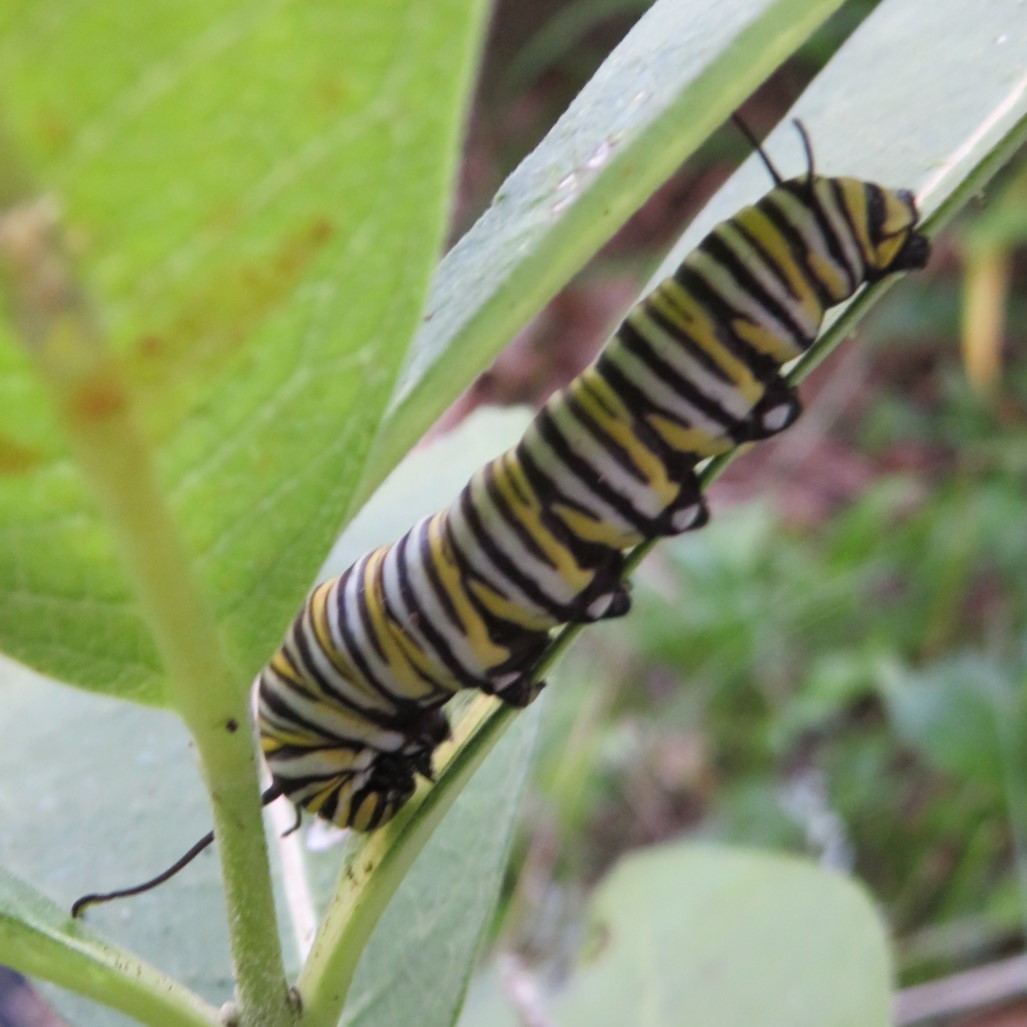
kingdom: Animalia
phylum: Arthropoda
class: Insecta
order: Lepidoptera
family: Nymphalidae
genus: Danaus
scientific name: Danaus plexippus
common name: Monarch
